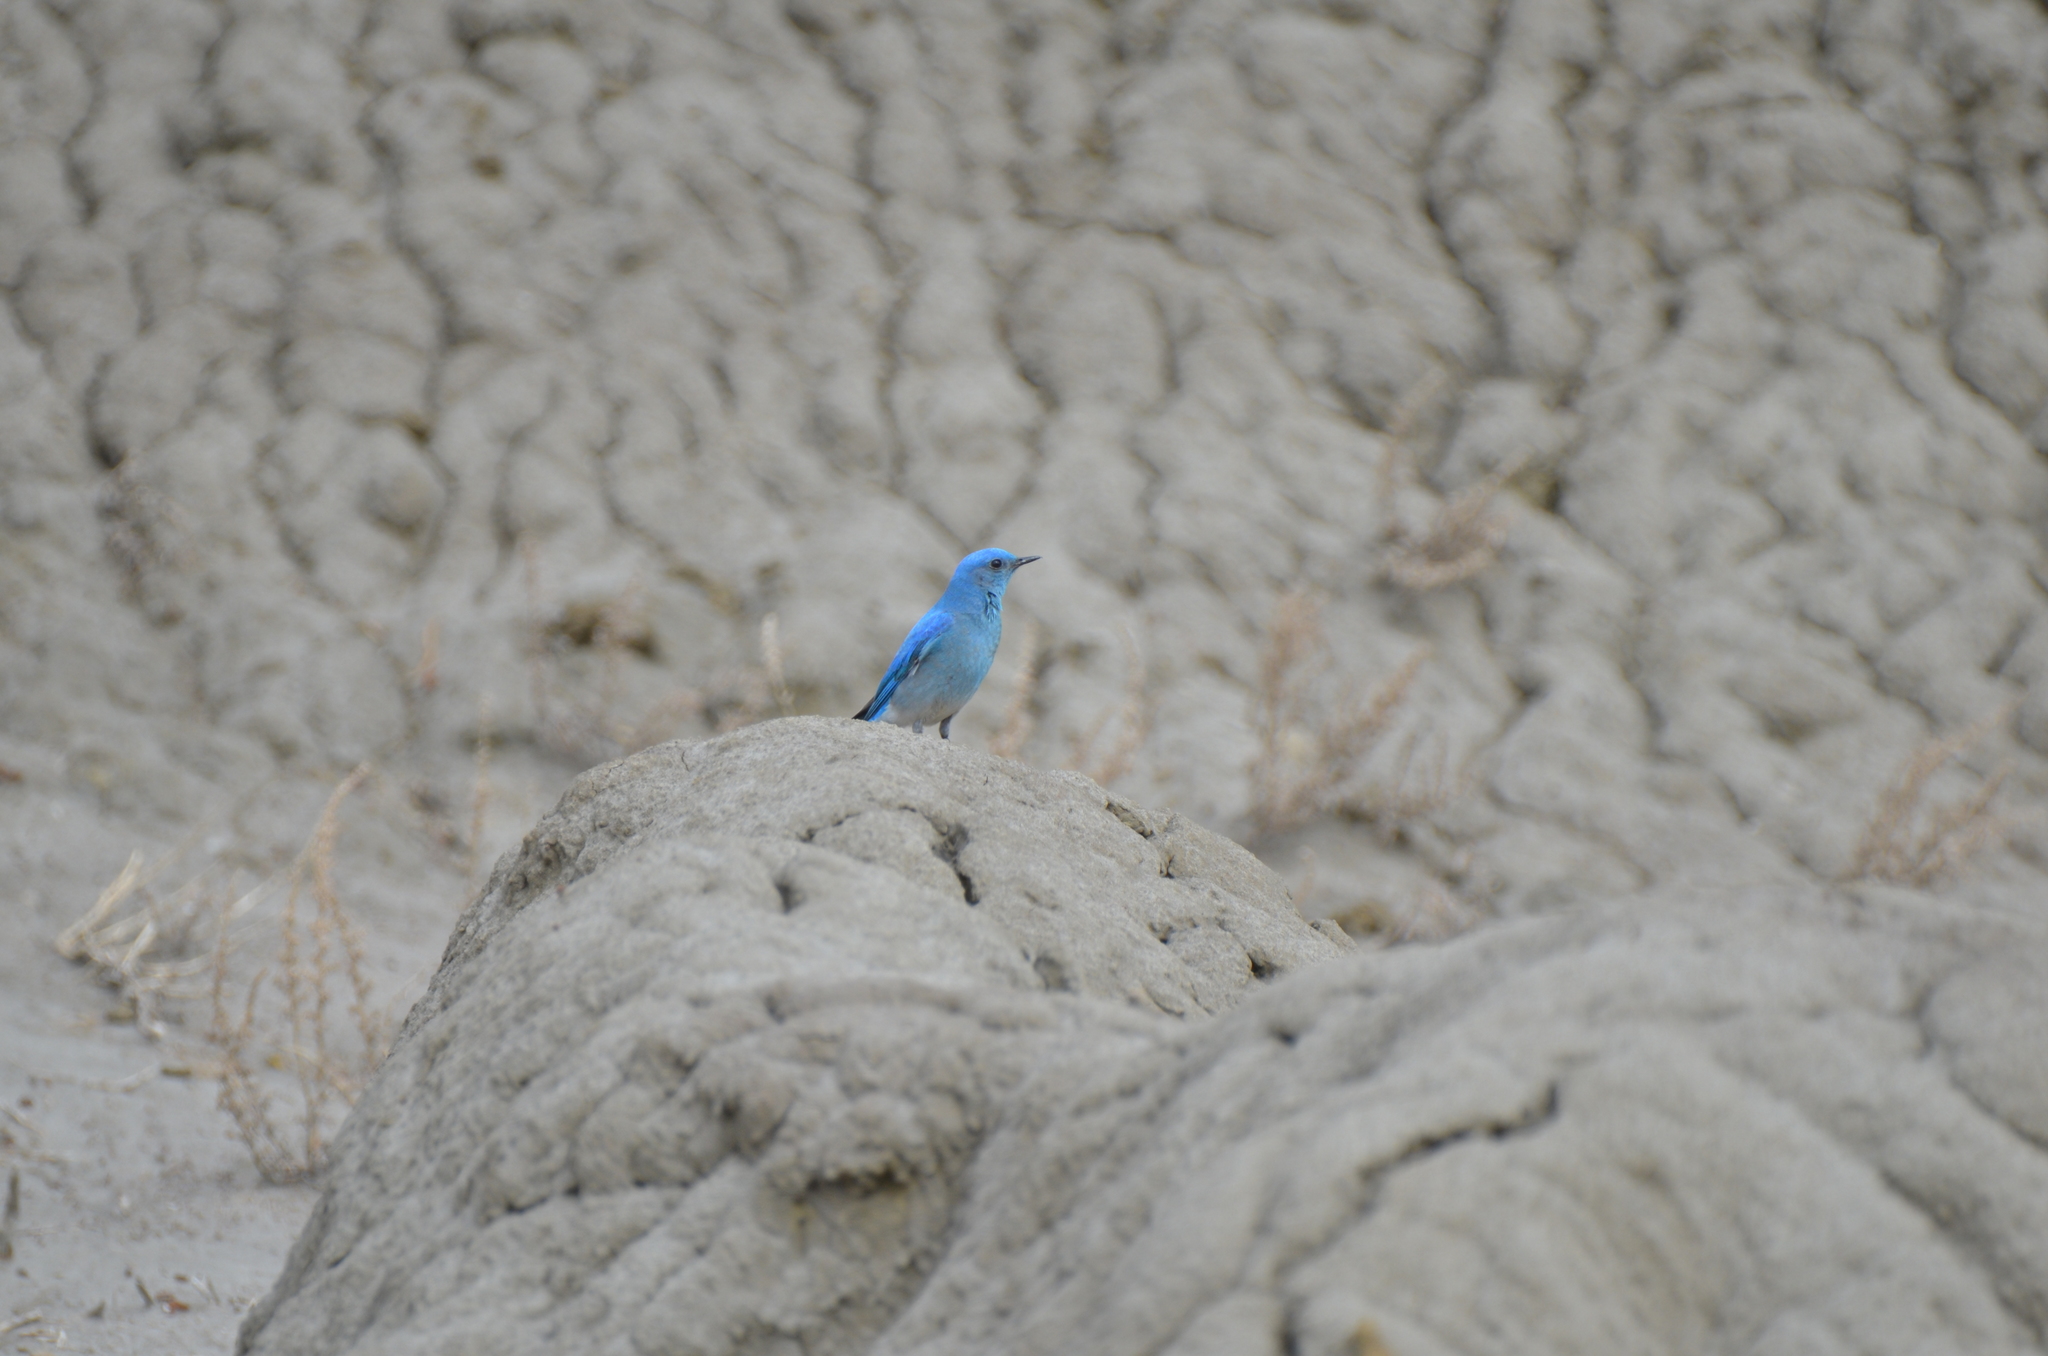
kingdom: Animalia
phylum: Chordata
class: Aves
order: Passeriformes
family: Turdidae
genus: Sialia
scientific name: Sialia currucoides
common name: Mountain bluebird
